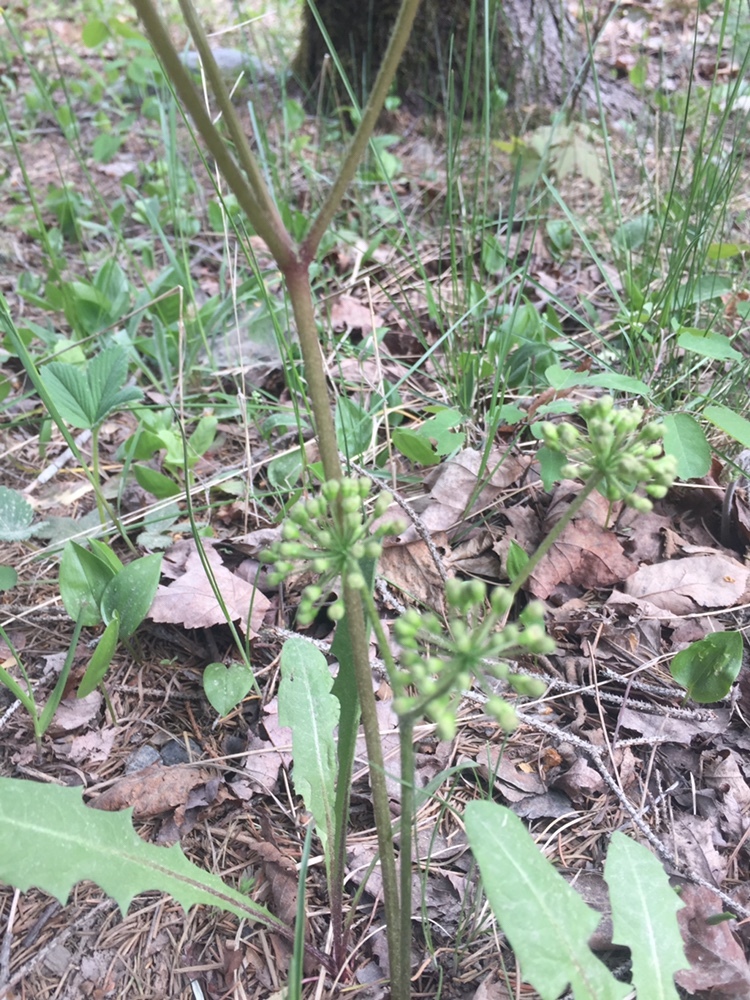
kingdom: Plantae
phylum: Tracheophyta
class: Magnoliopsida
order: Apiales
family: Araliaceae
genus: Aralia
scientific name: Aralia nudicaulis
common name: Wild sarsaparilla
